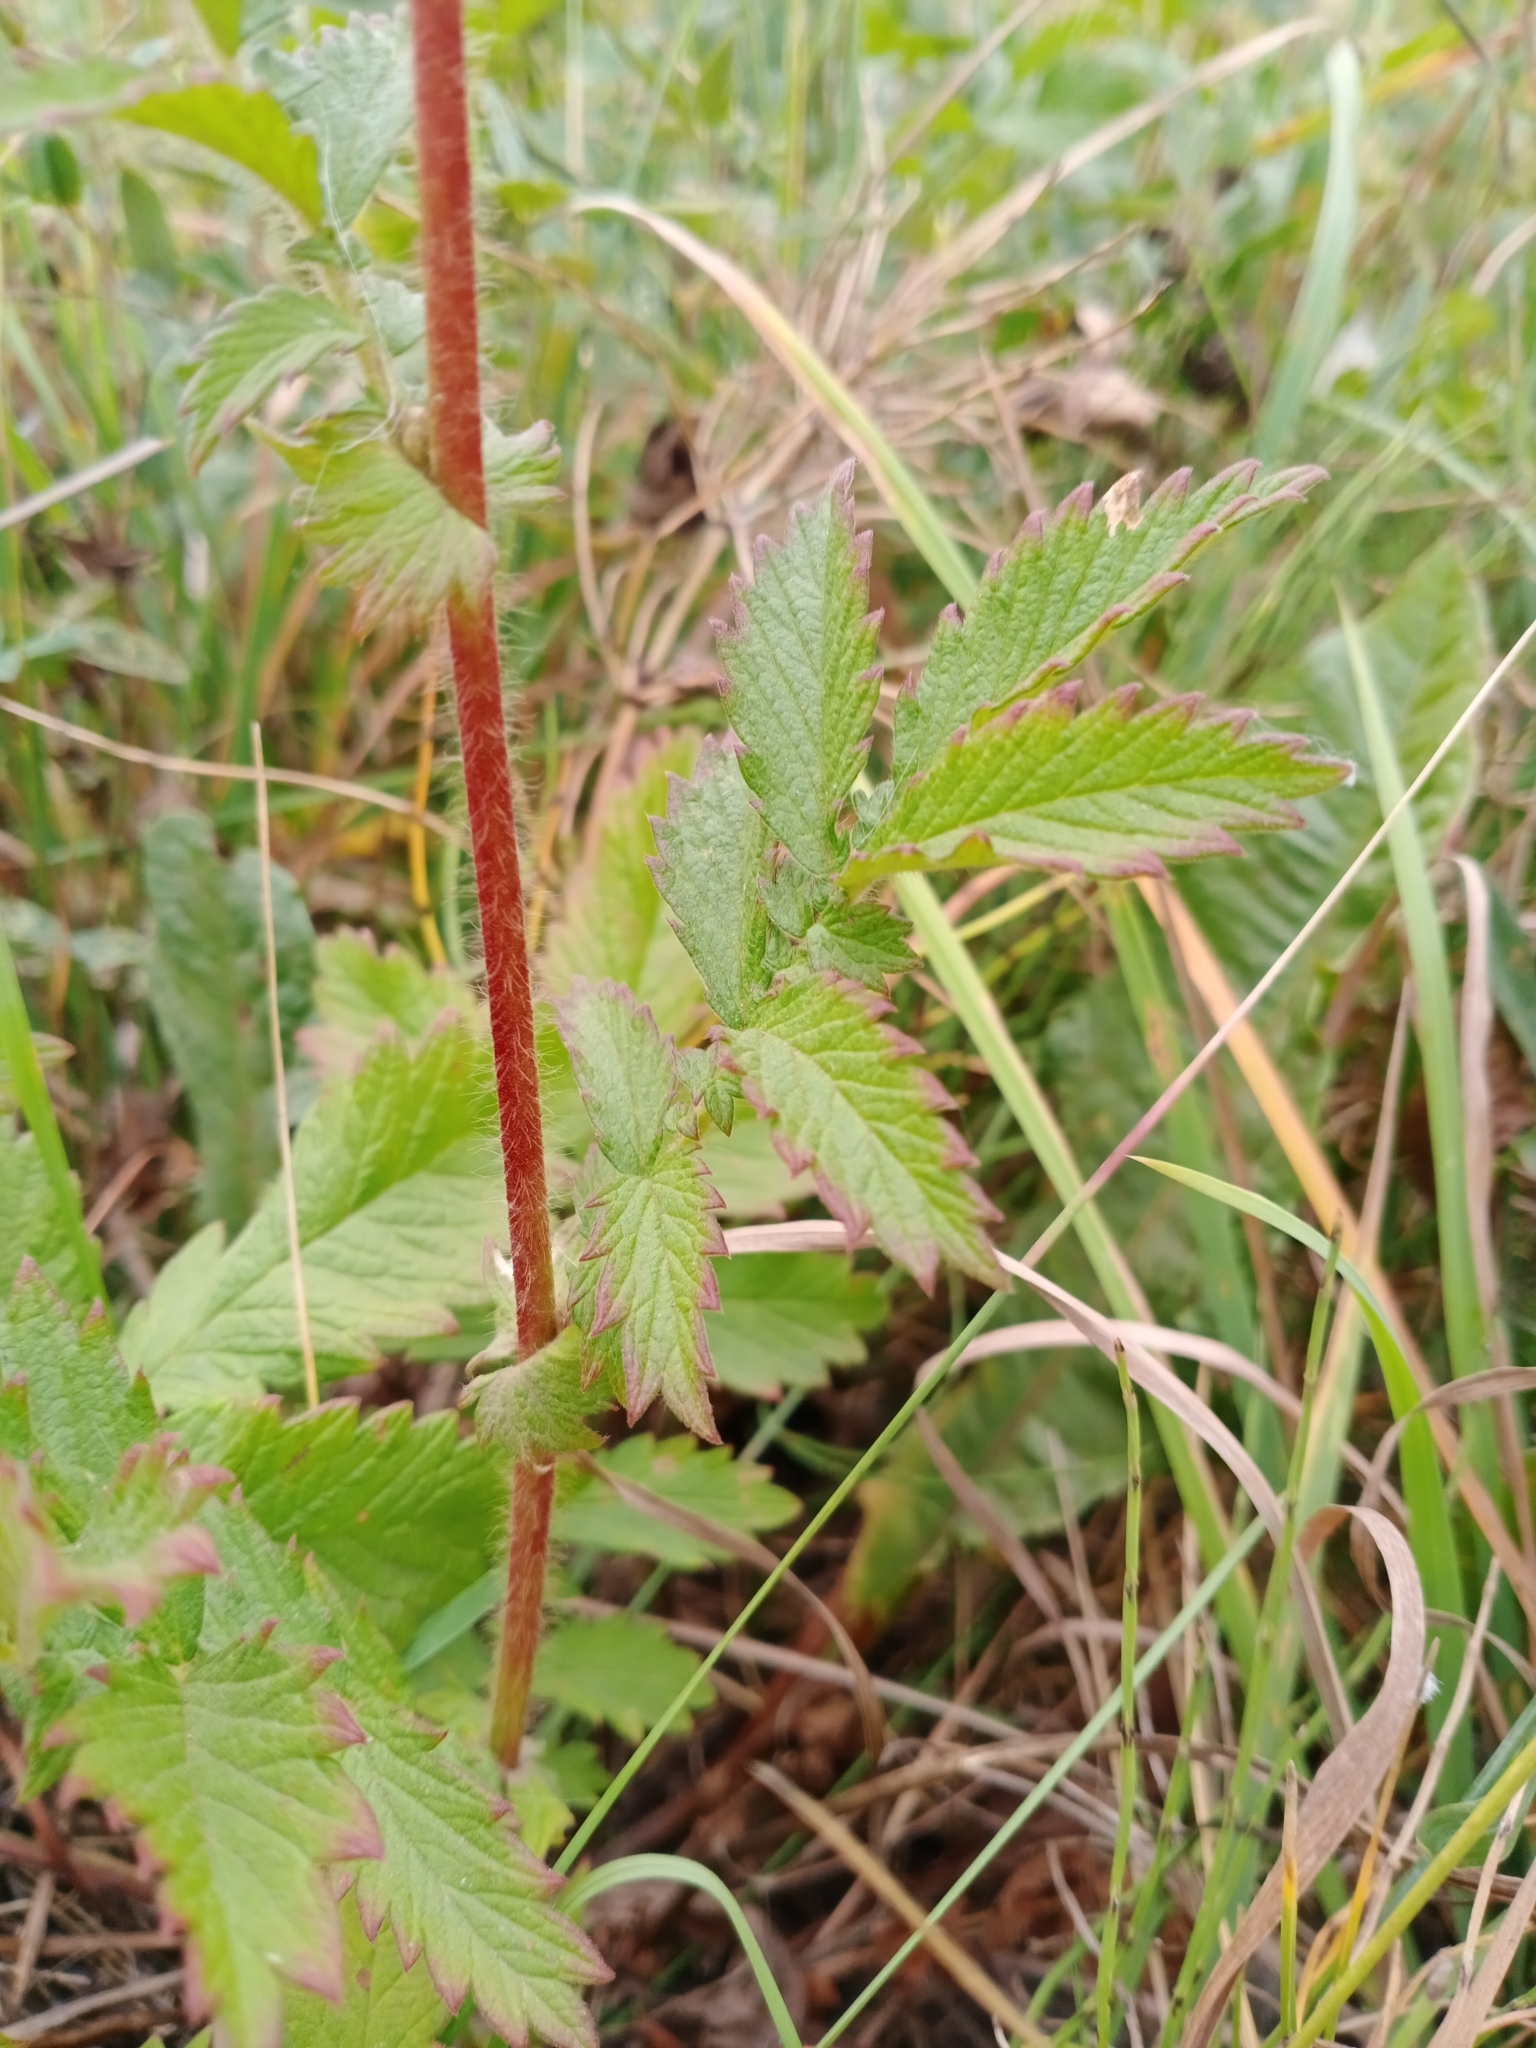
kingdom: Plantae
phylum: Tracheophyta
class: Magnoliopsida
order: Rosales
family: Rosaceae
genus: Agrimonia
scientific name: Agrimonia eupatoria
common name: Agrimony
